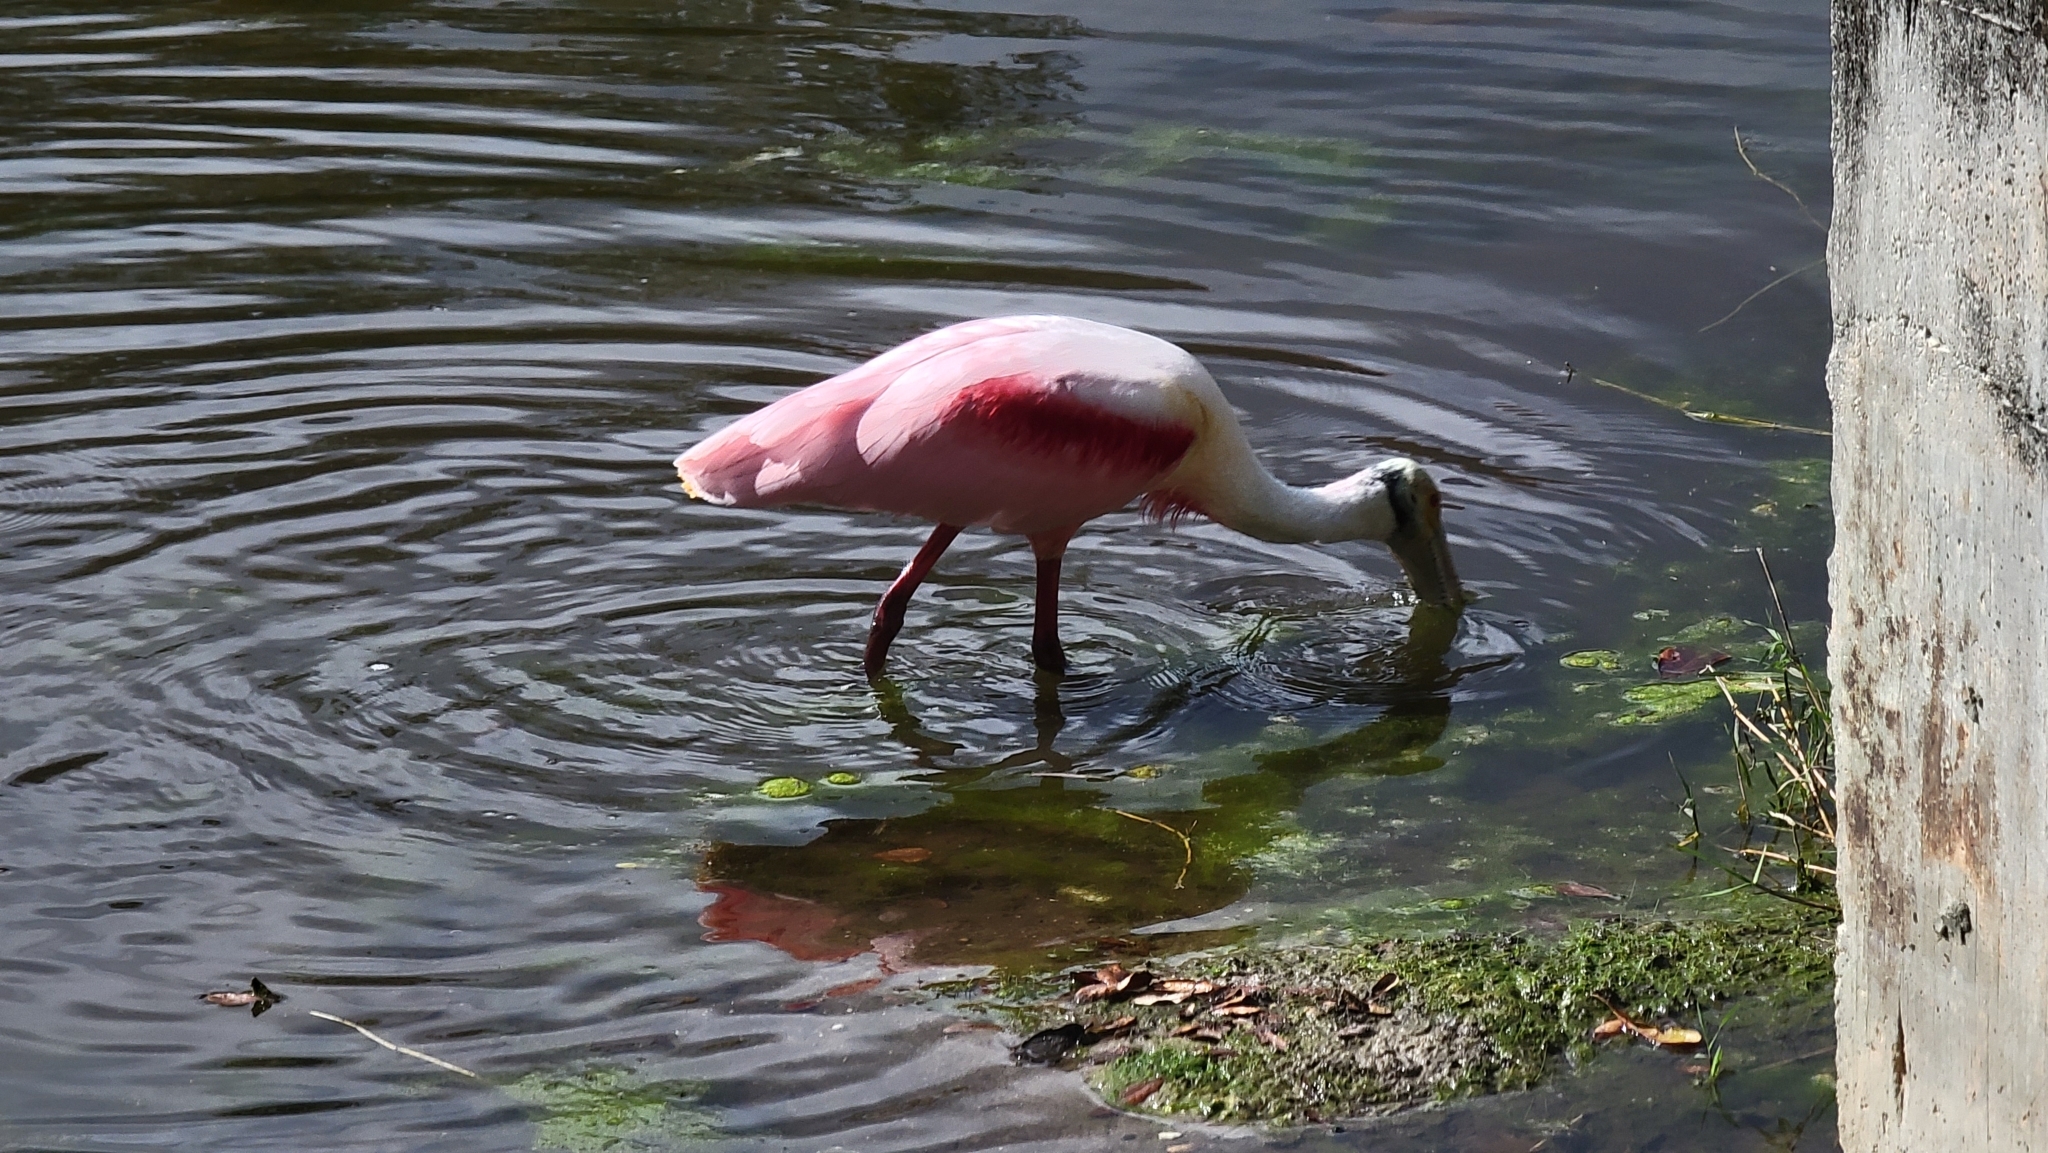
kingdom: Animalia
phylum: Chordata
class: Aves
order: Pelecaniformes
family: Threskiornithidae
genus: Platalea
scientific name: Platalea ajaja
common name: Roseate spoonbill
